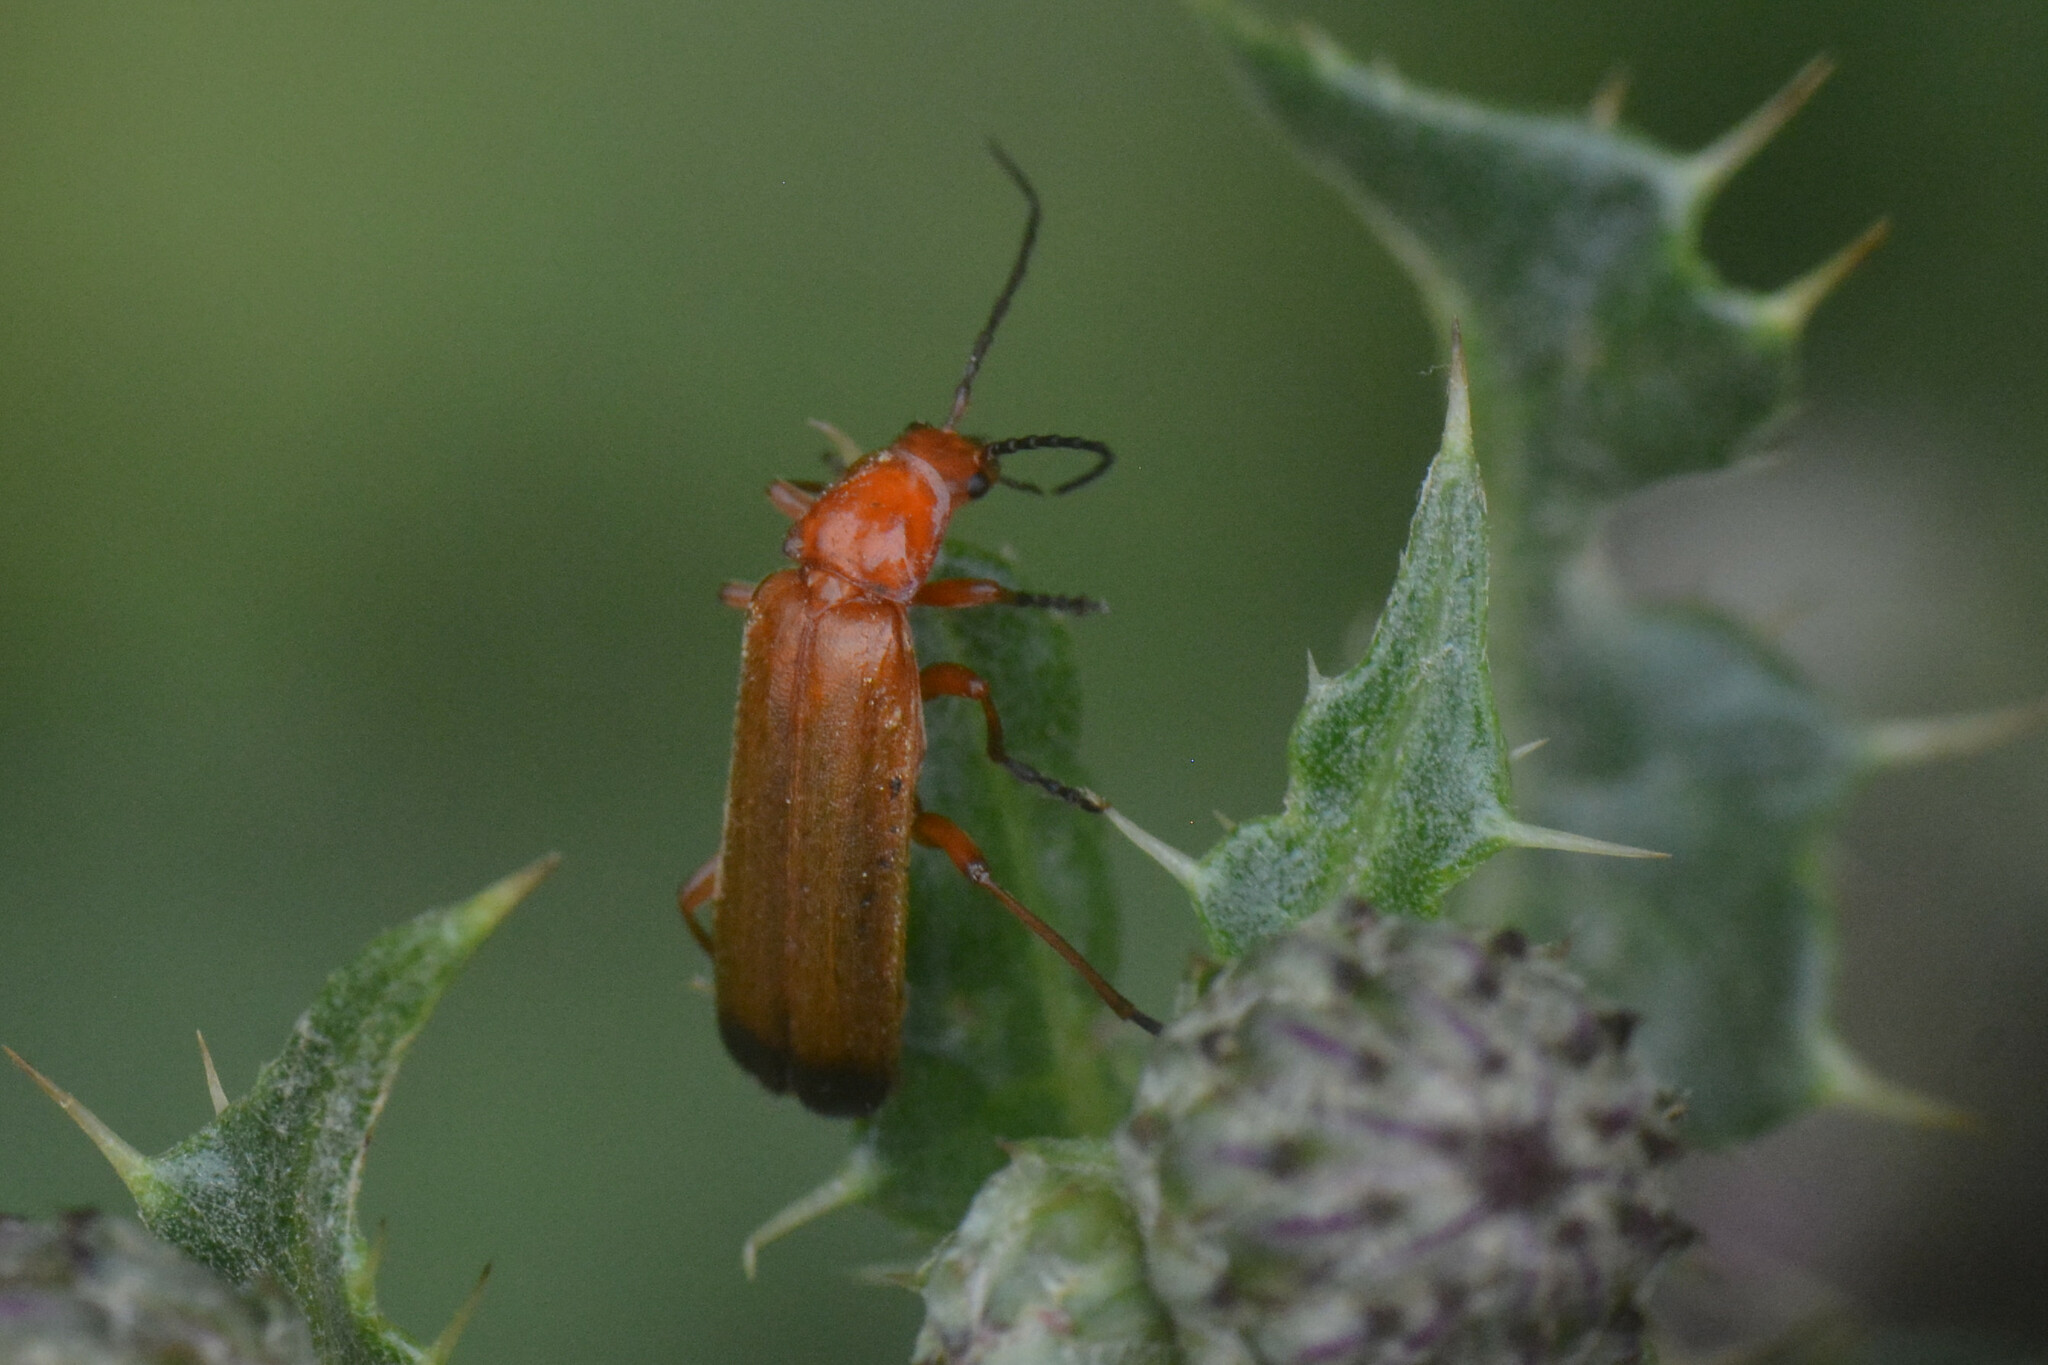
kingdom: Animalia
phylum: Arthropoda
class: Insecta
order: Coleoptera
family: Cantharidae
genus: Rhagonycha
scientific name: Rhagonycha fulva
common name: Common red soldier beetle
